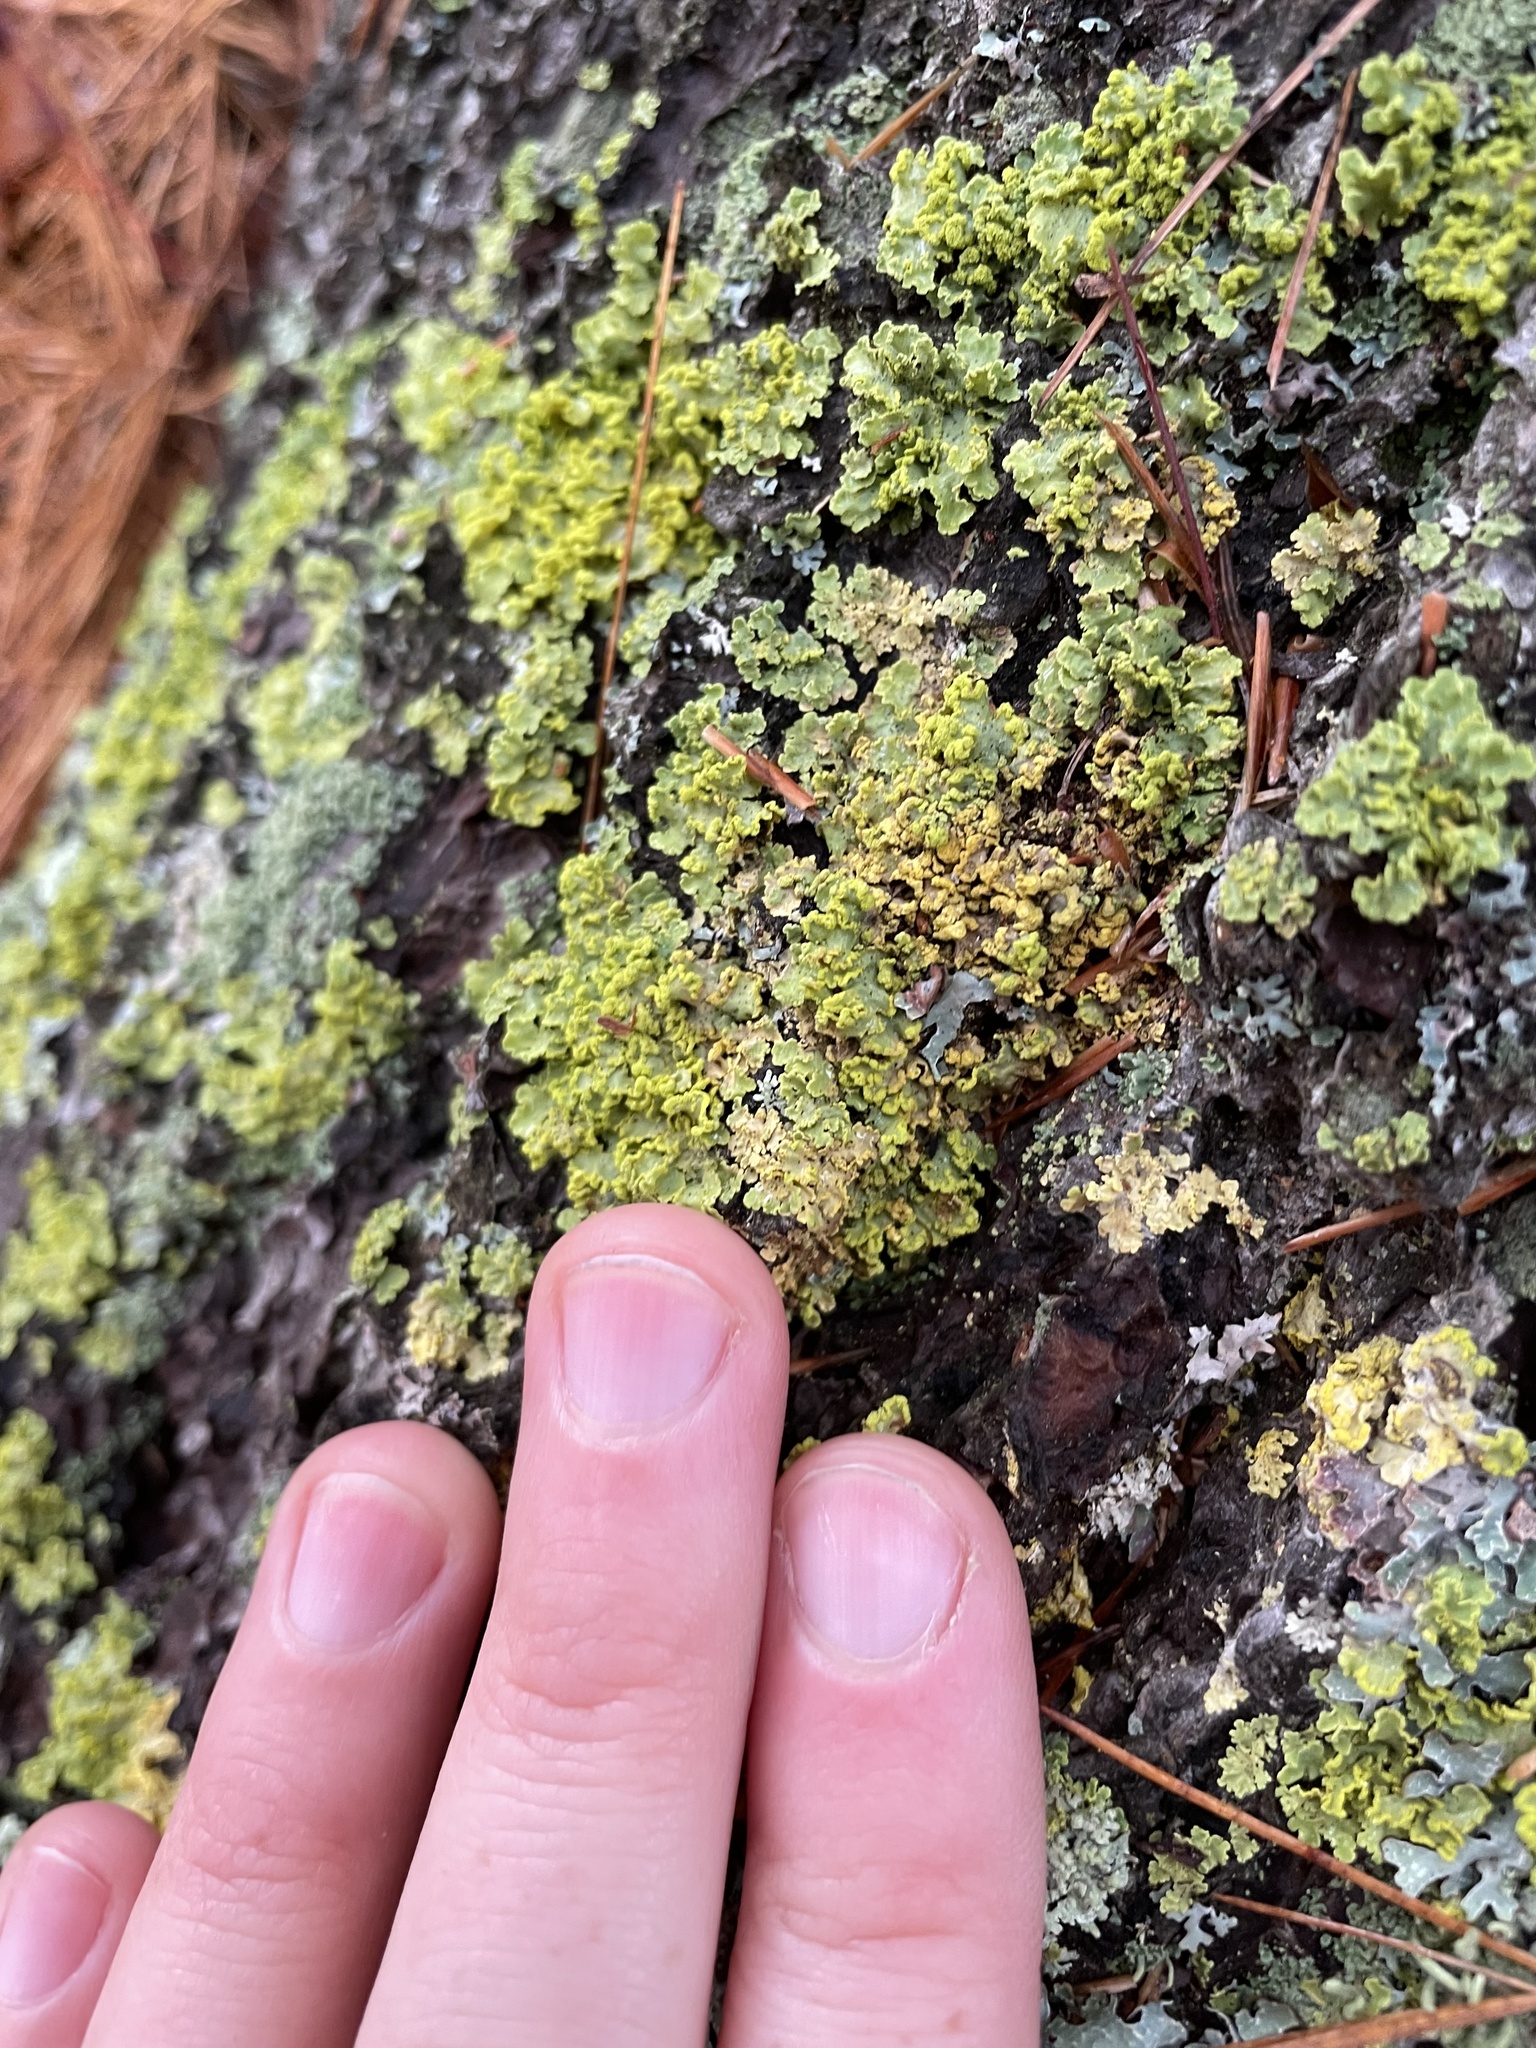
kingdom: Fungi
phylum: Ascomycota
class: Lecanoromycetes
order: Lecanorales
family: Parmeliaceae
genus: Vulpicida
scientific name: Vulpicida pinastri
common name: Powdered sunshine lichen
